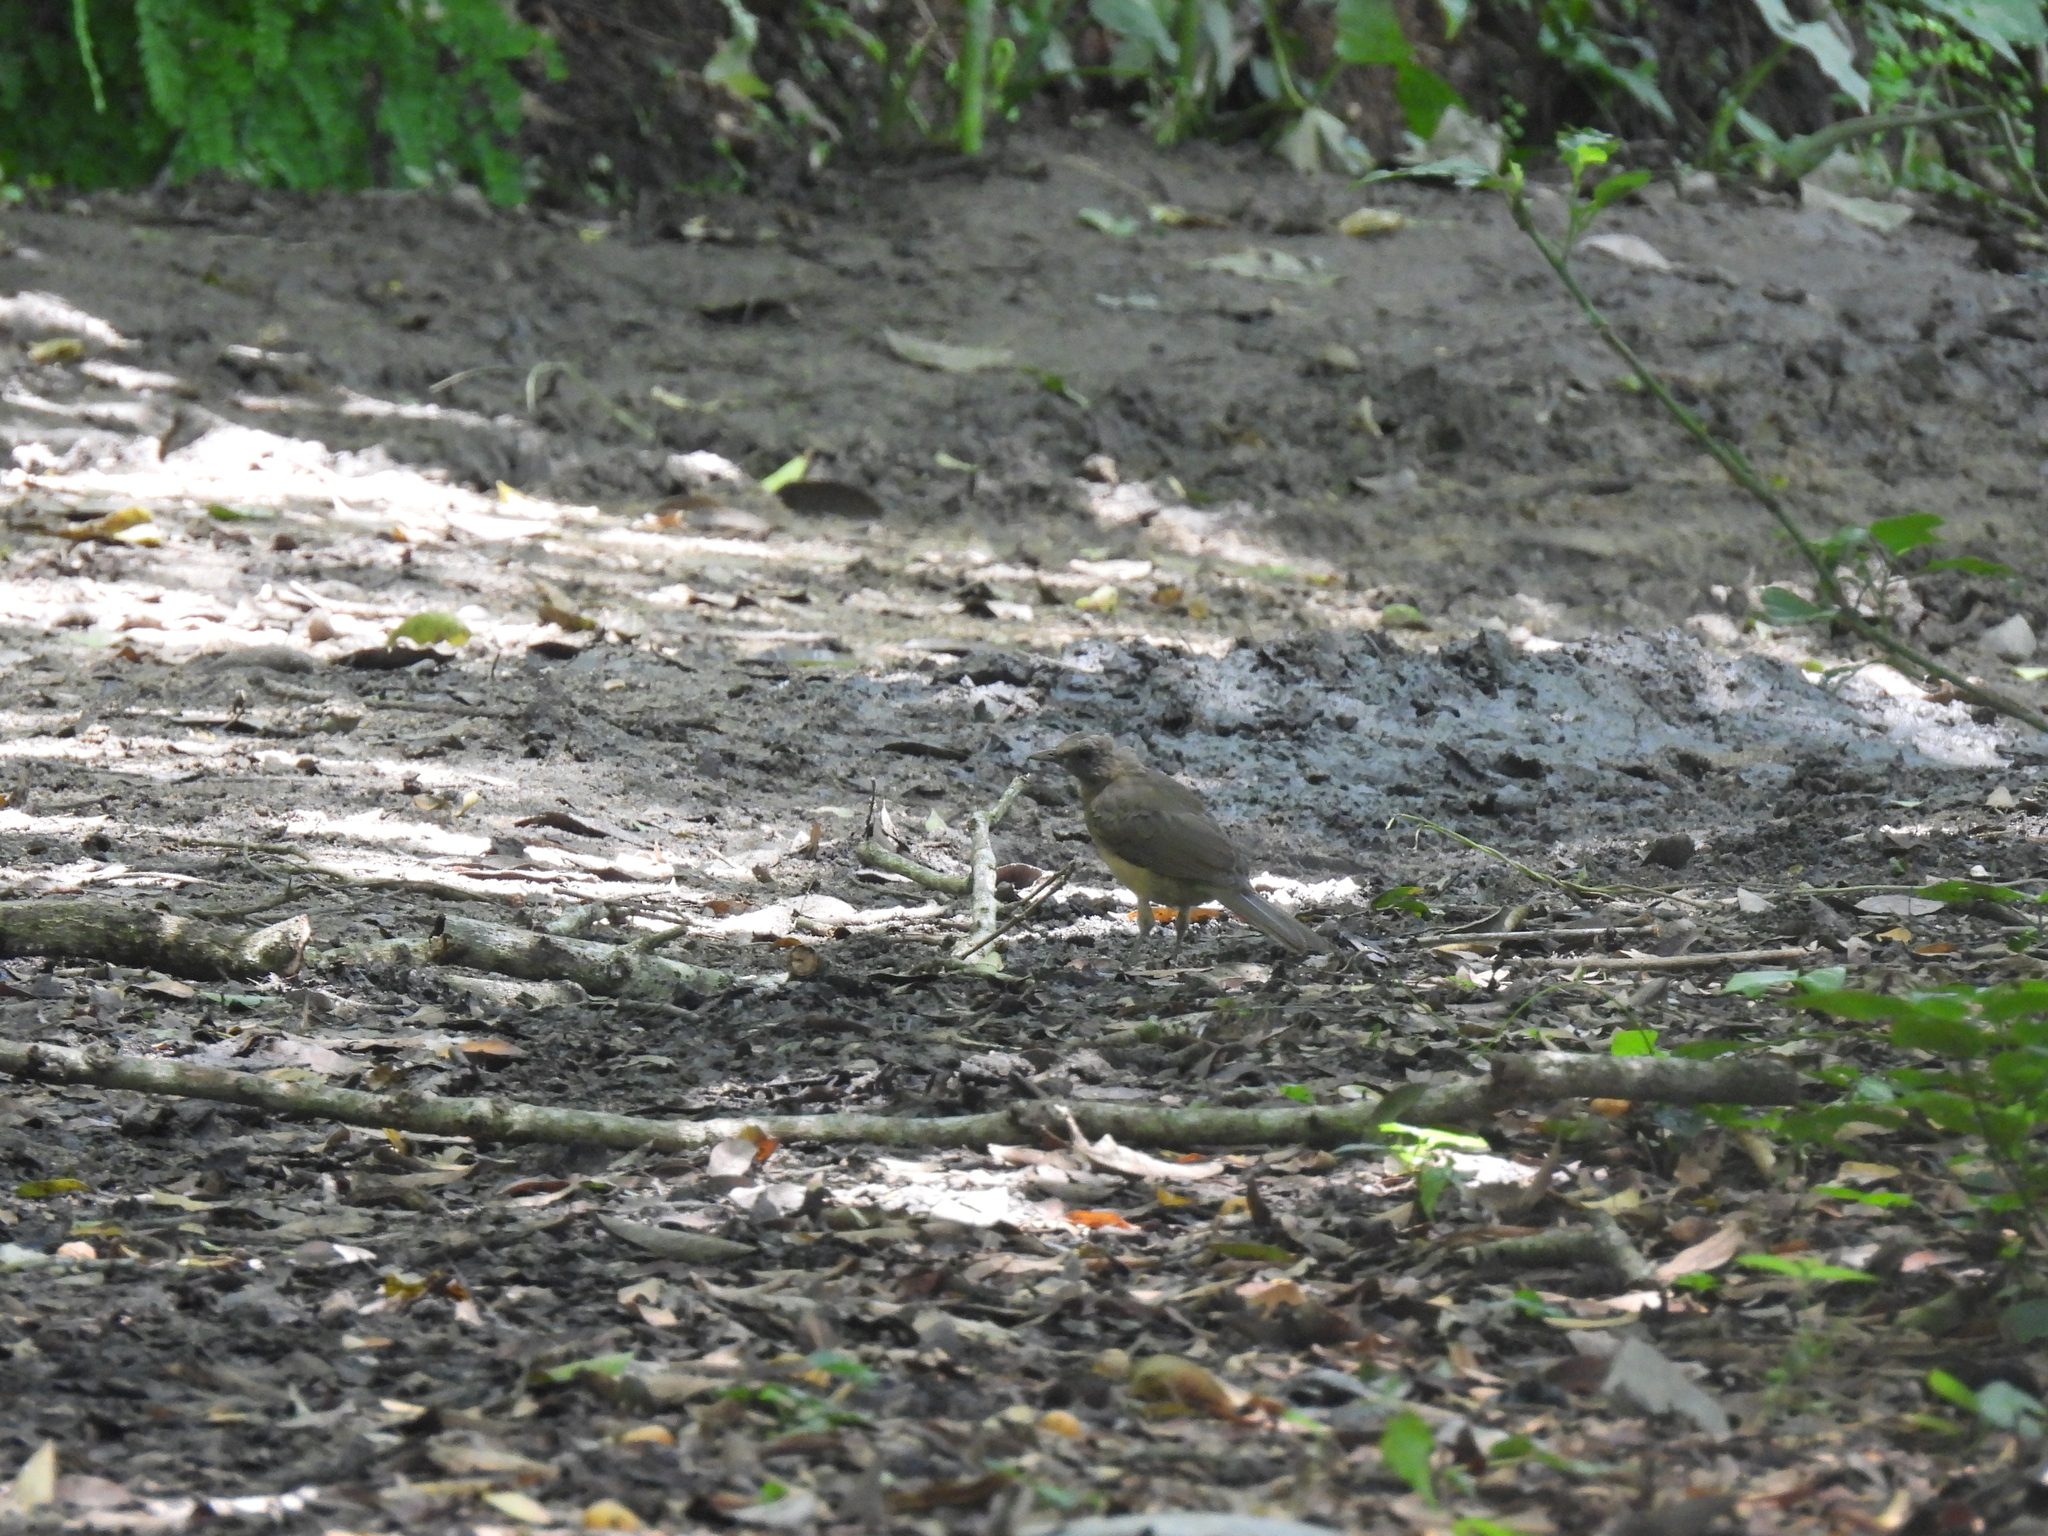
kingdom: Animalia
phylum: Chordata
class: Aves
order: Passeriformes
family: Turdidae
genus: Turdus
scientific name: Turdus grayi
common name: Clay-colored thrush
